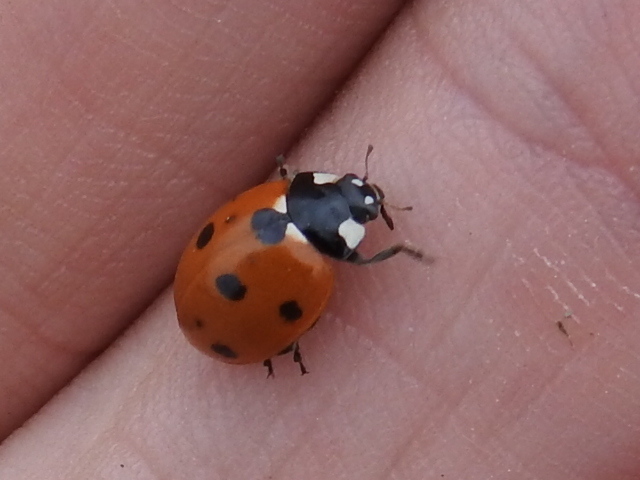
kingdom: Animalia
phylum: Arthropoda
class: Insecta
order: Coleoptera
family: Coccinellidae
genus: Coccinella
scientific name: Coccinella septempunctata
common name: Sevenspotted lady beetle
